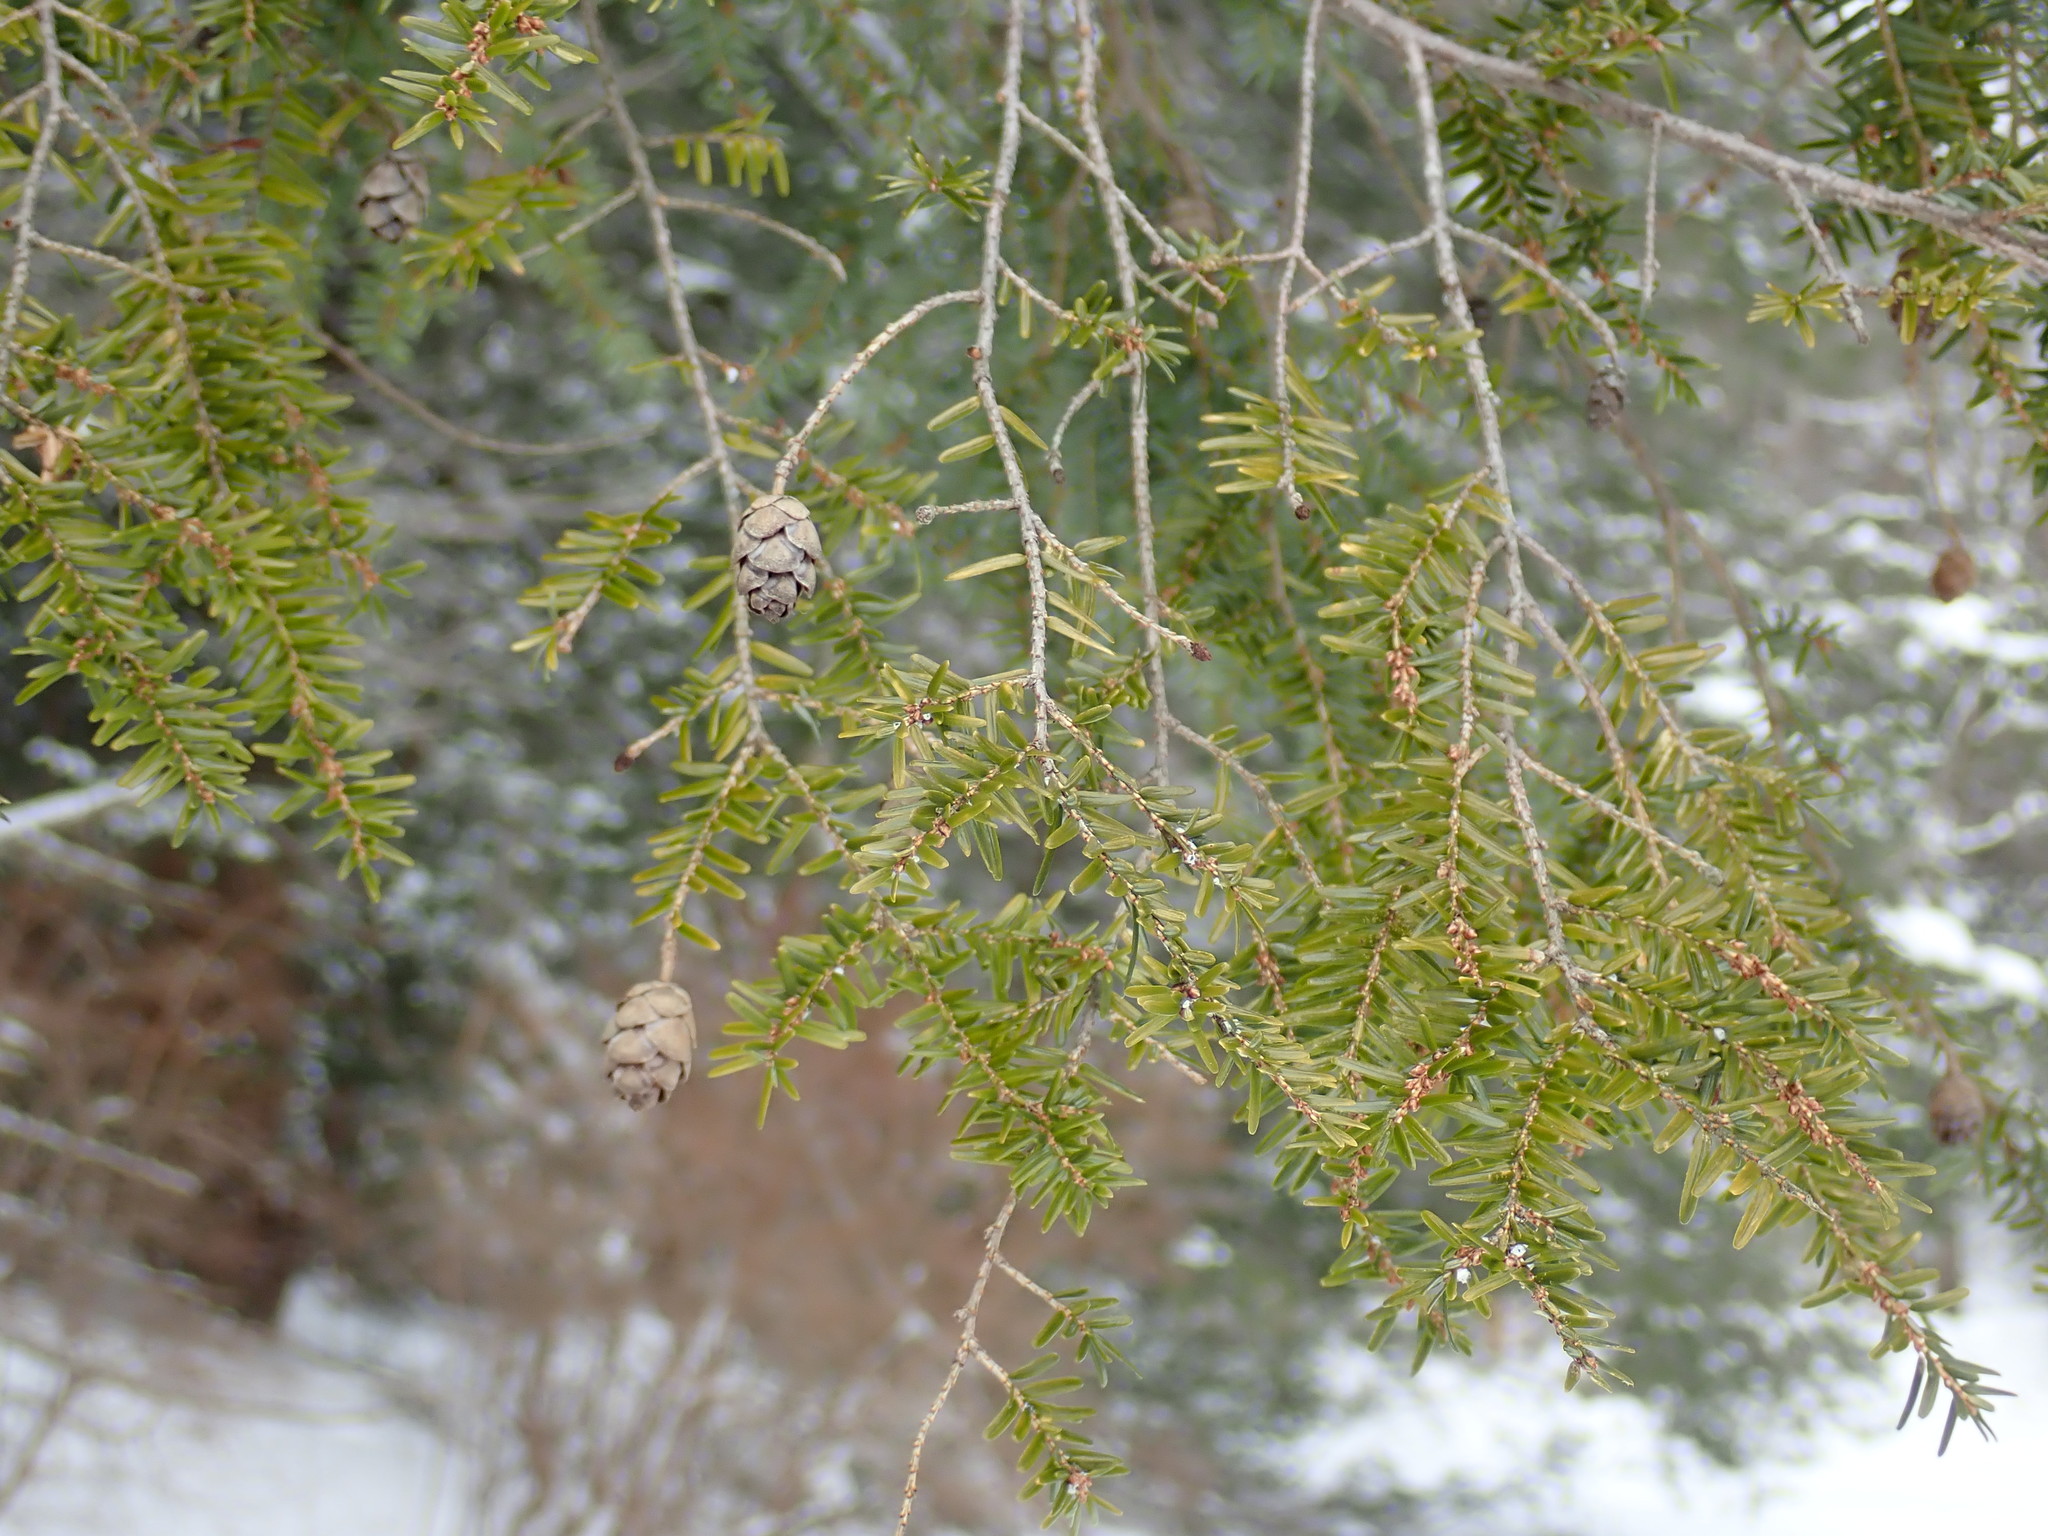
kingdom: Plantae
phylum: Tracheophyta
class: Pinopsida
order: Pinales
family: Pinaceae
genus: Tsuga
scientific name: Tsuga canadensis
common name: Eastern hemlock
